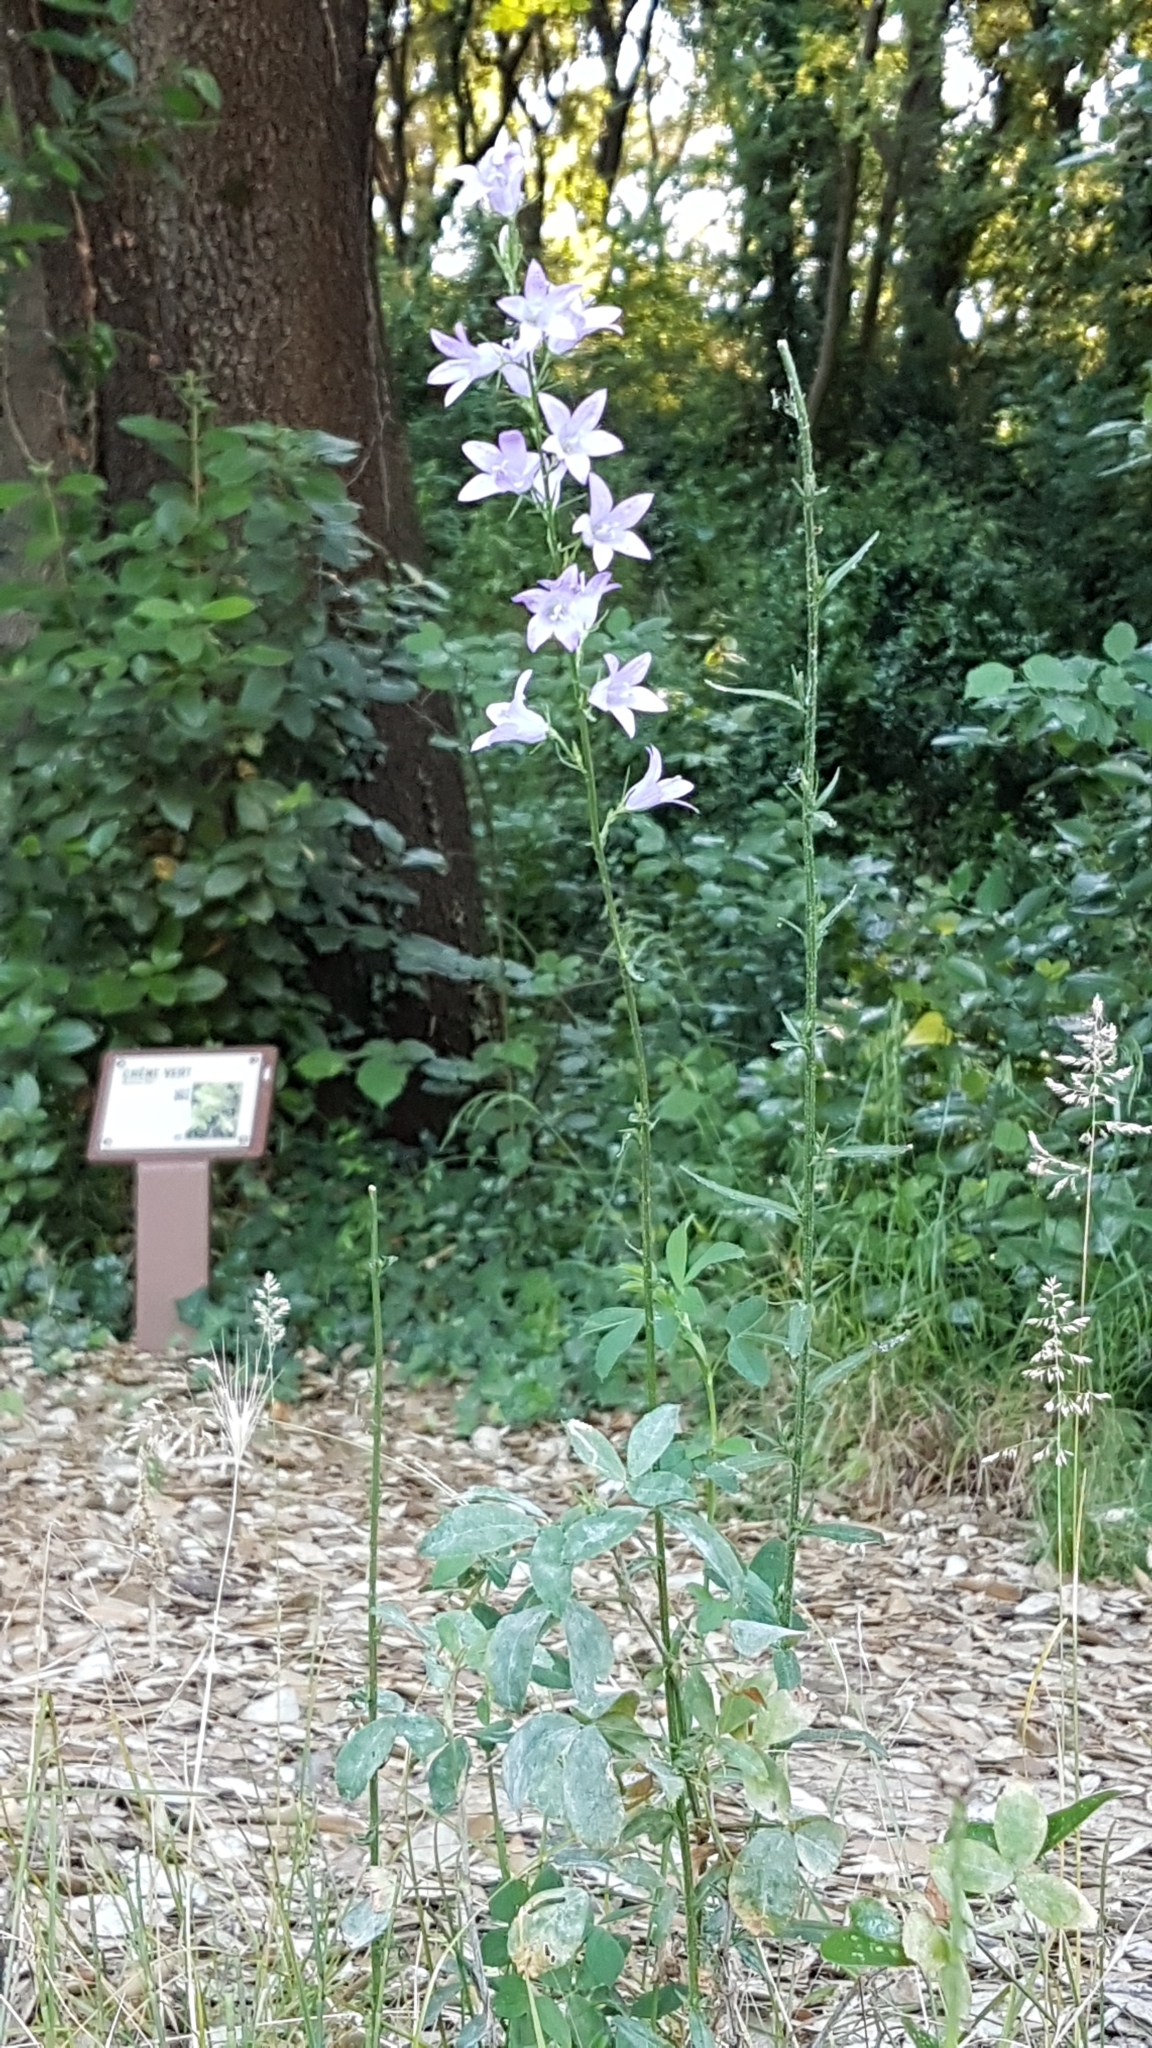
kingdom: Plantae
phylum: Tracheophyta
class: Magnoliopsida
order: Asterales
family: Campanulaceae
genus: Campanula
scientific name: Campanula rapunculus
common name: Rampion bellflower
